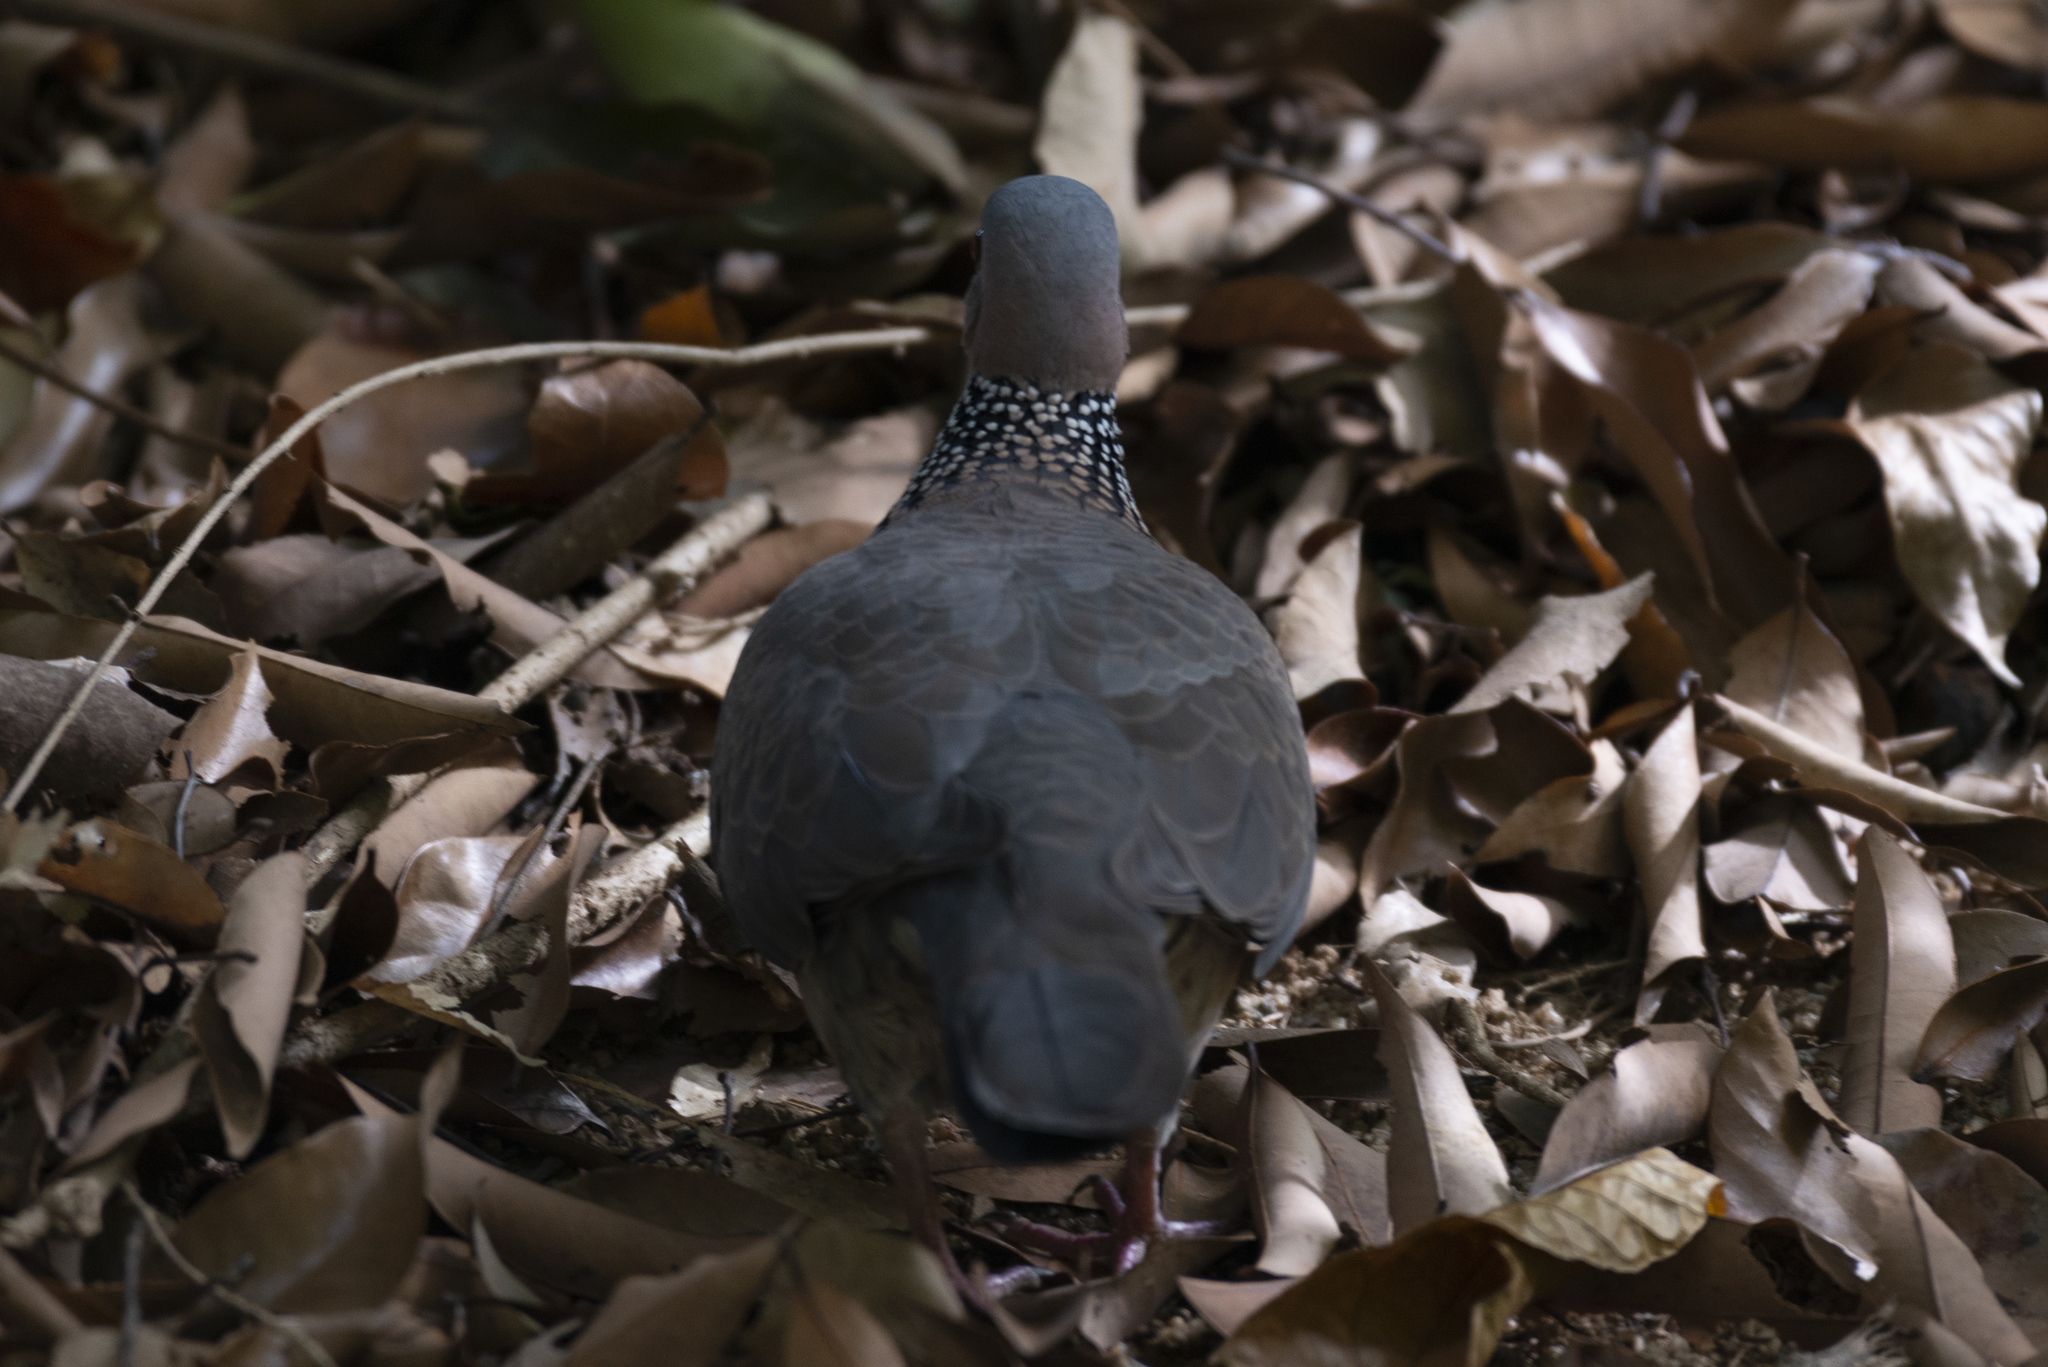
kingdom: Animalia
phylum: Chordata
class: Aves
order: Columbiformes
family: Columbidae
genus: Spilopelia
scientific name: Spilopelia chinensis
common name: Spotted dove
